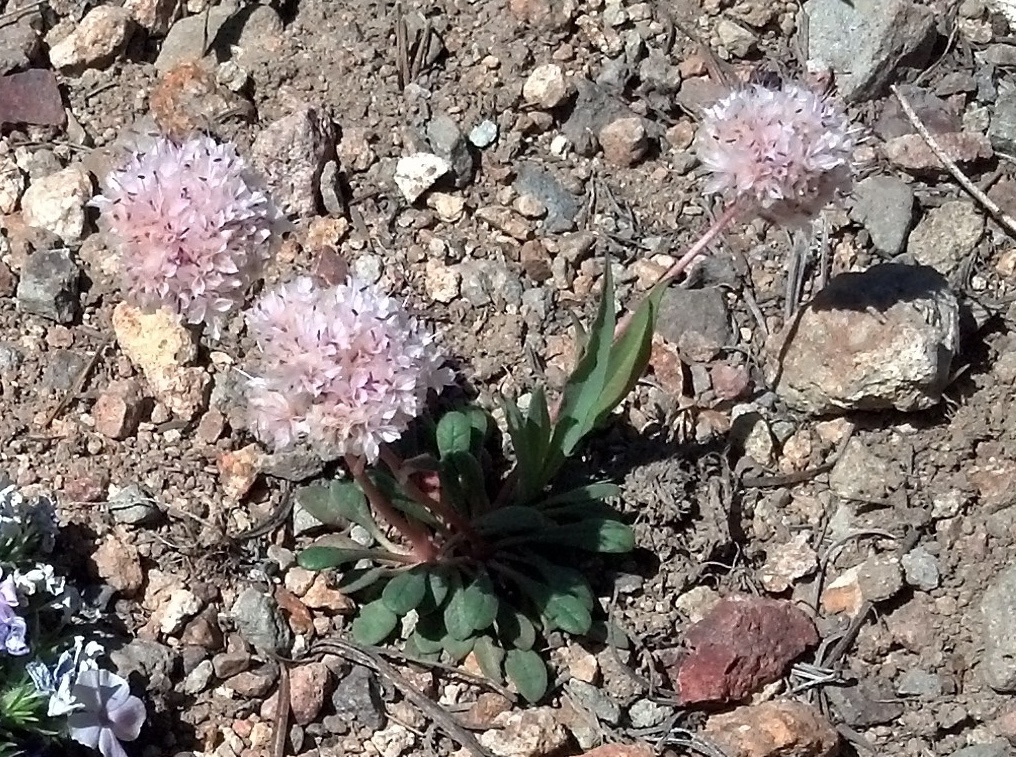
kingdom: Plantae
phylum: Tracheophyta
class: Magnoliopsida
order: Caryophyllales
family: Montiaceae
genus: Calyptridium
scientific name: Calyptridium monospermum
